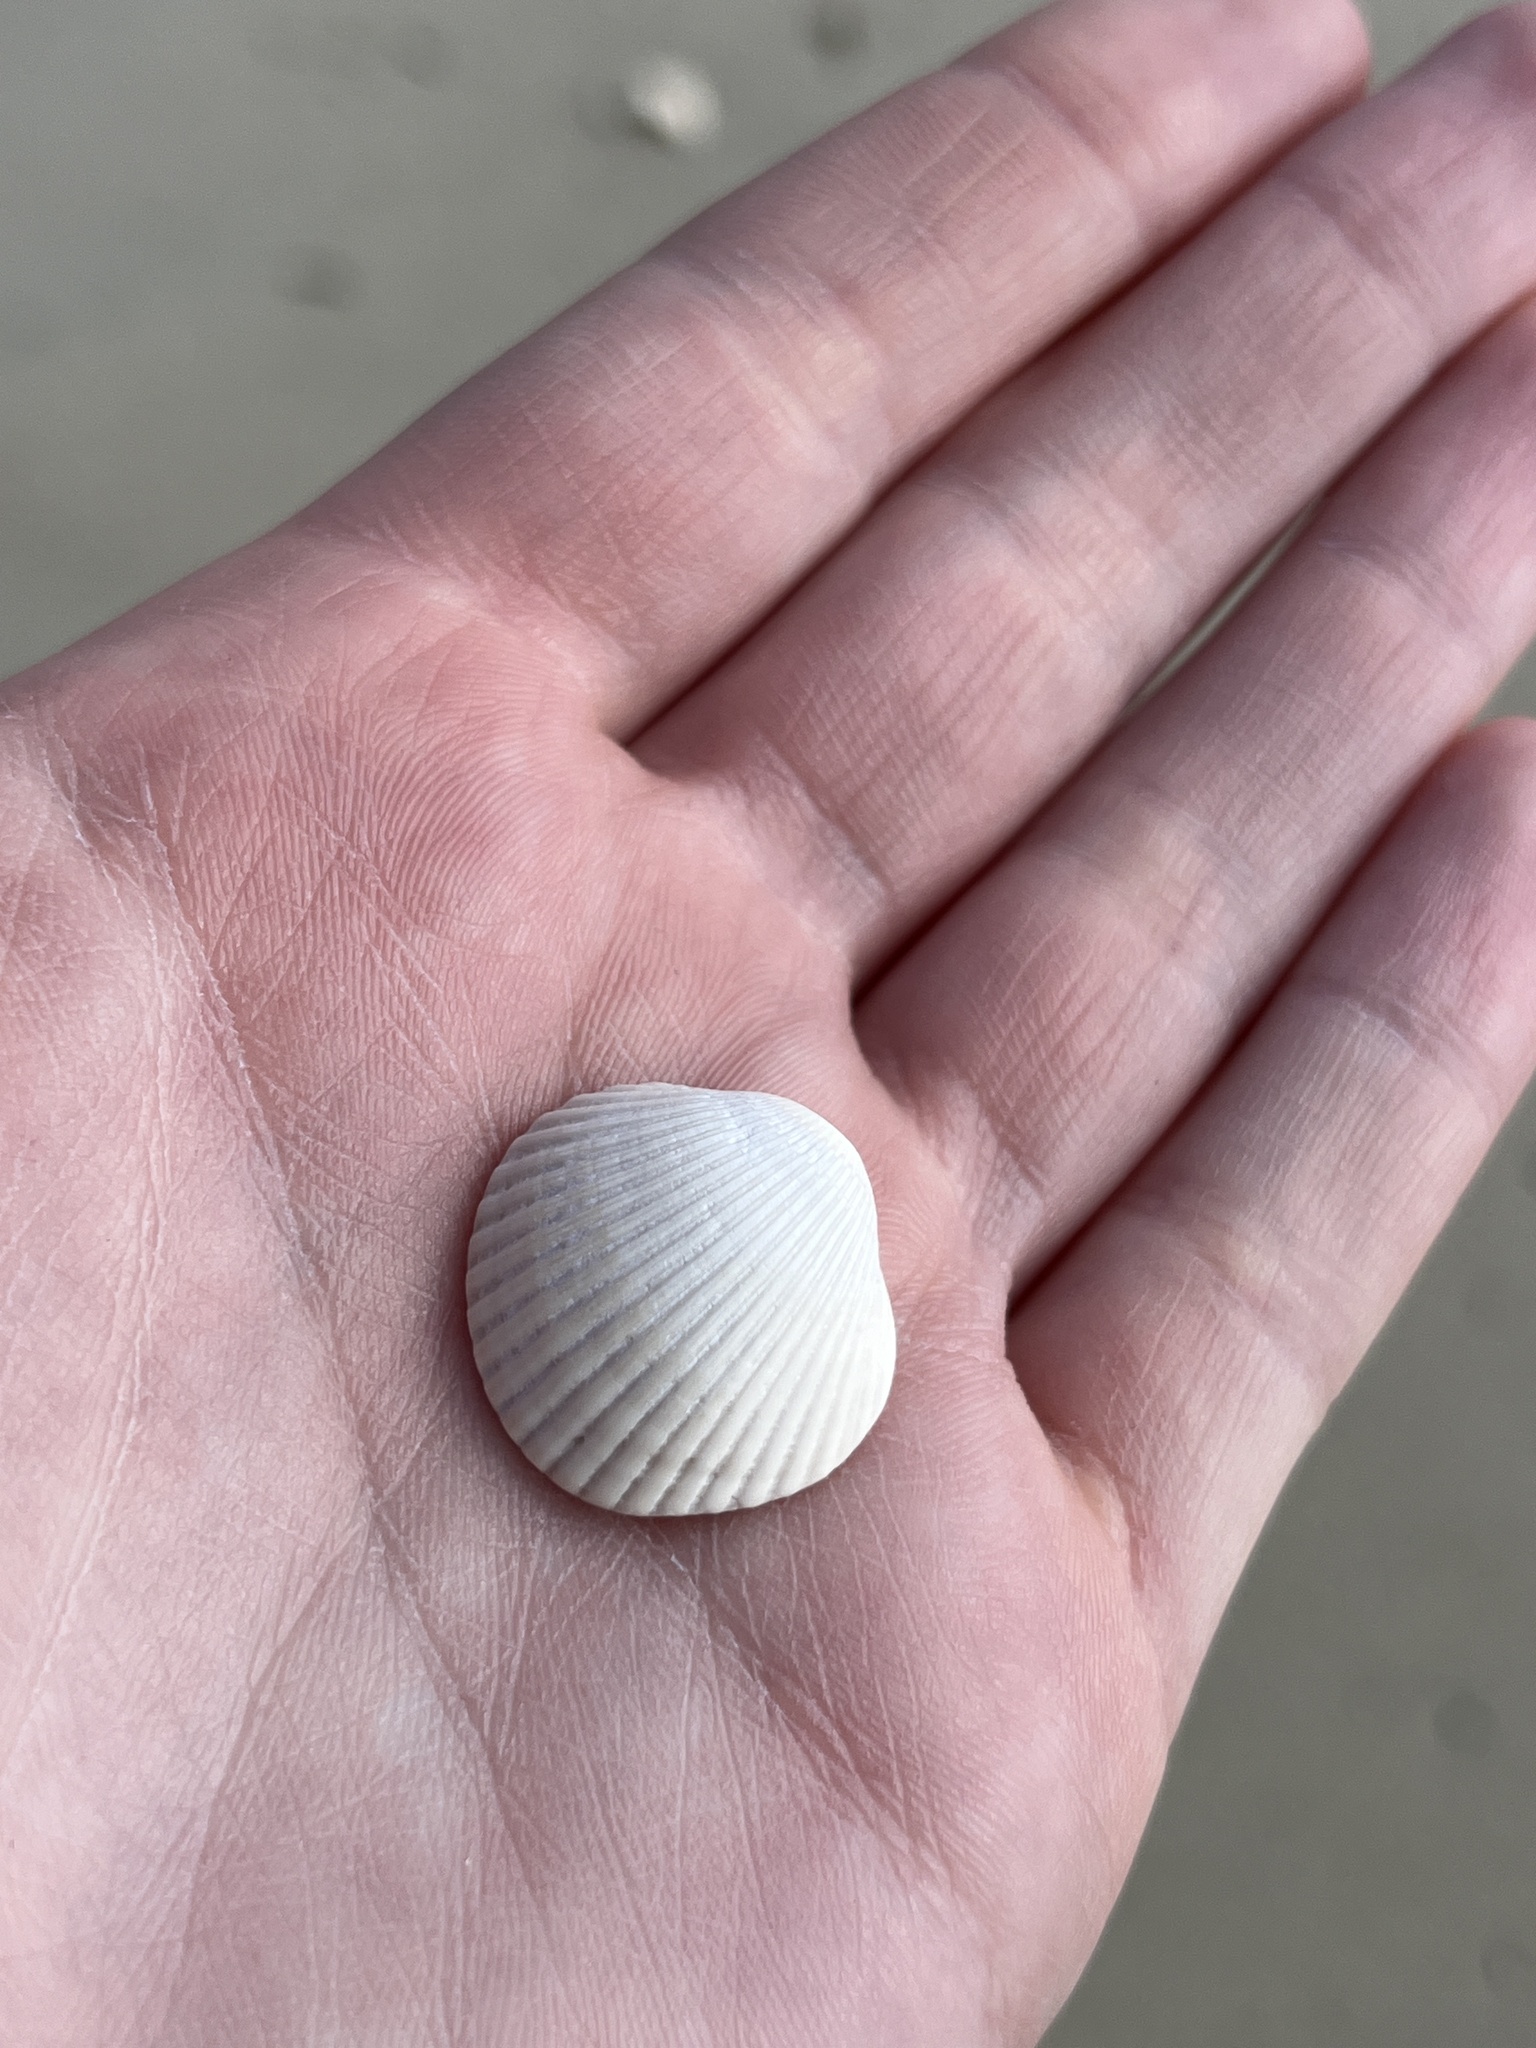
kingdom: Animalia
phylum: Mollusca
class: Bivalvia
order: Arcida
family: Arcidae
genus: Lunarca
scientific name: Lunarca ovalis
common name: Blood ark
